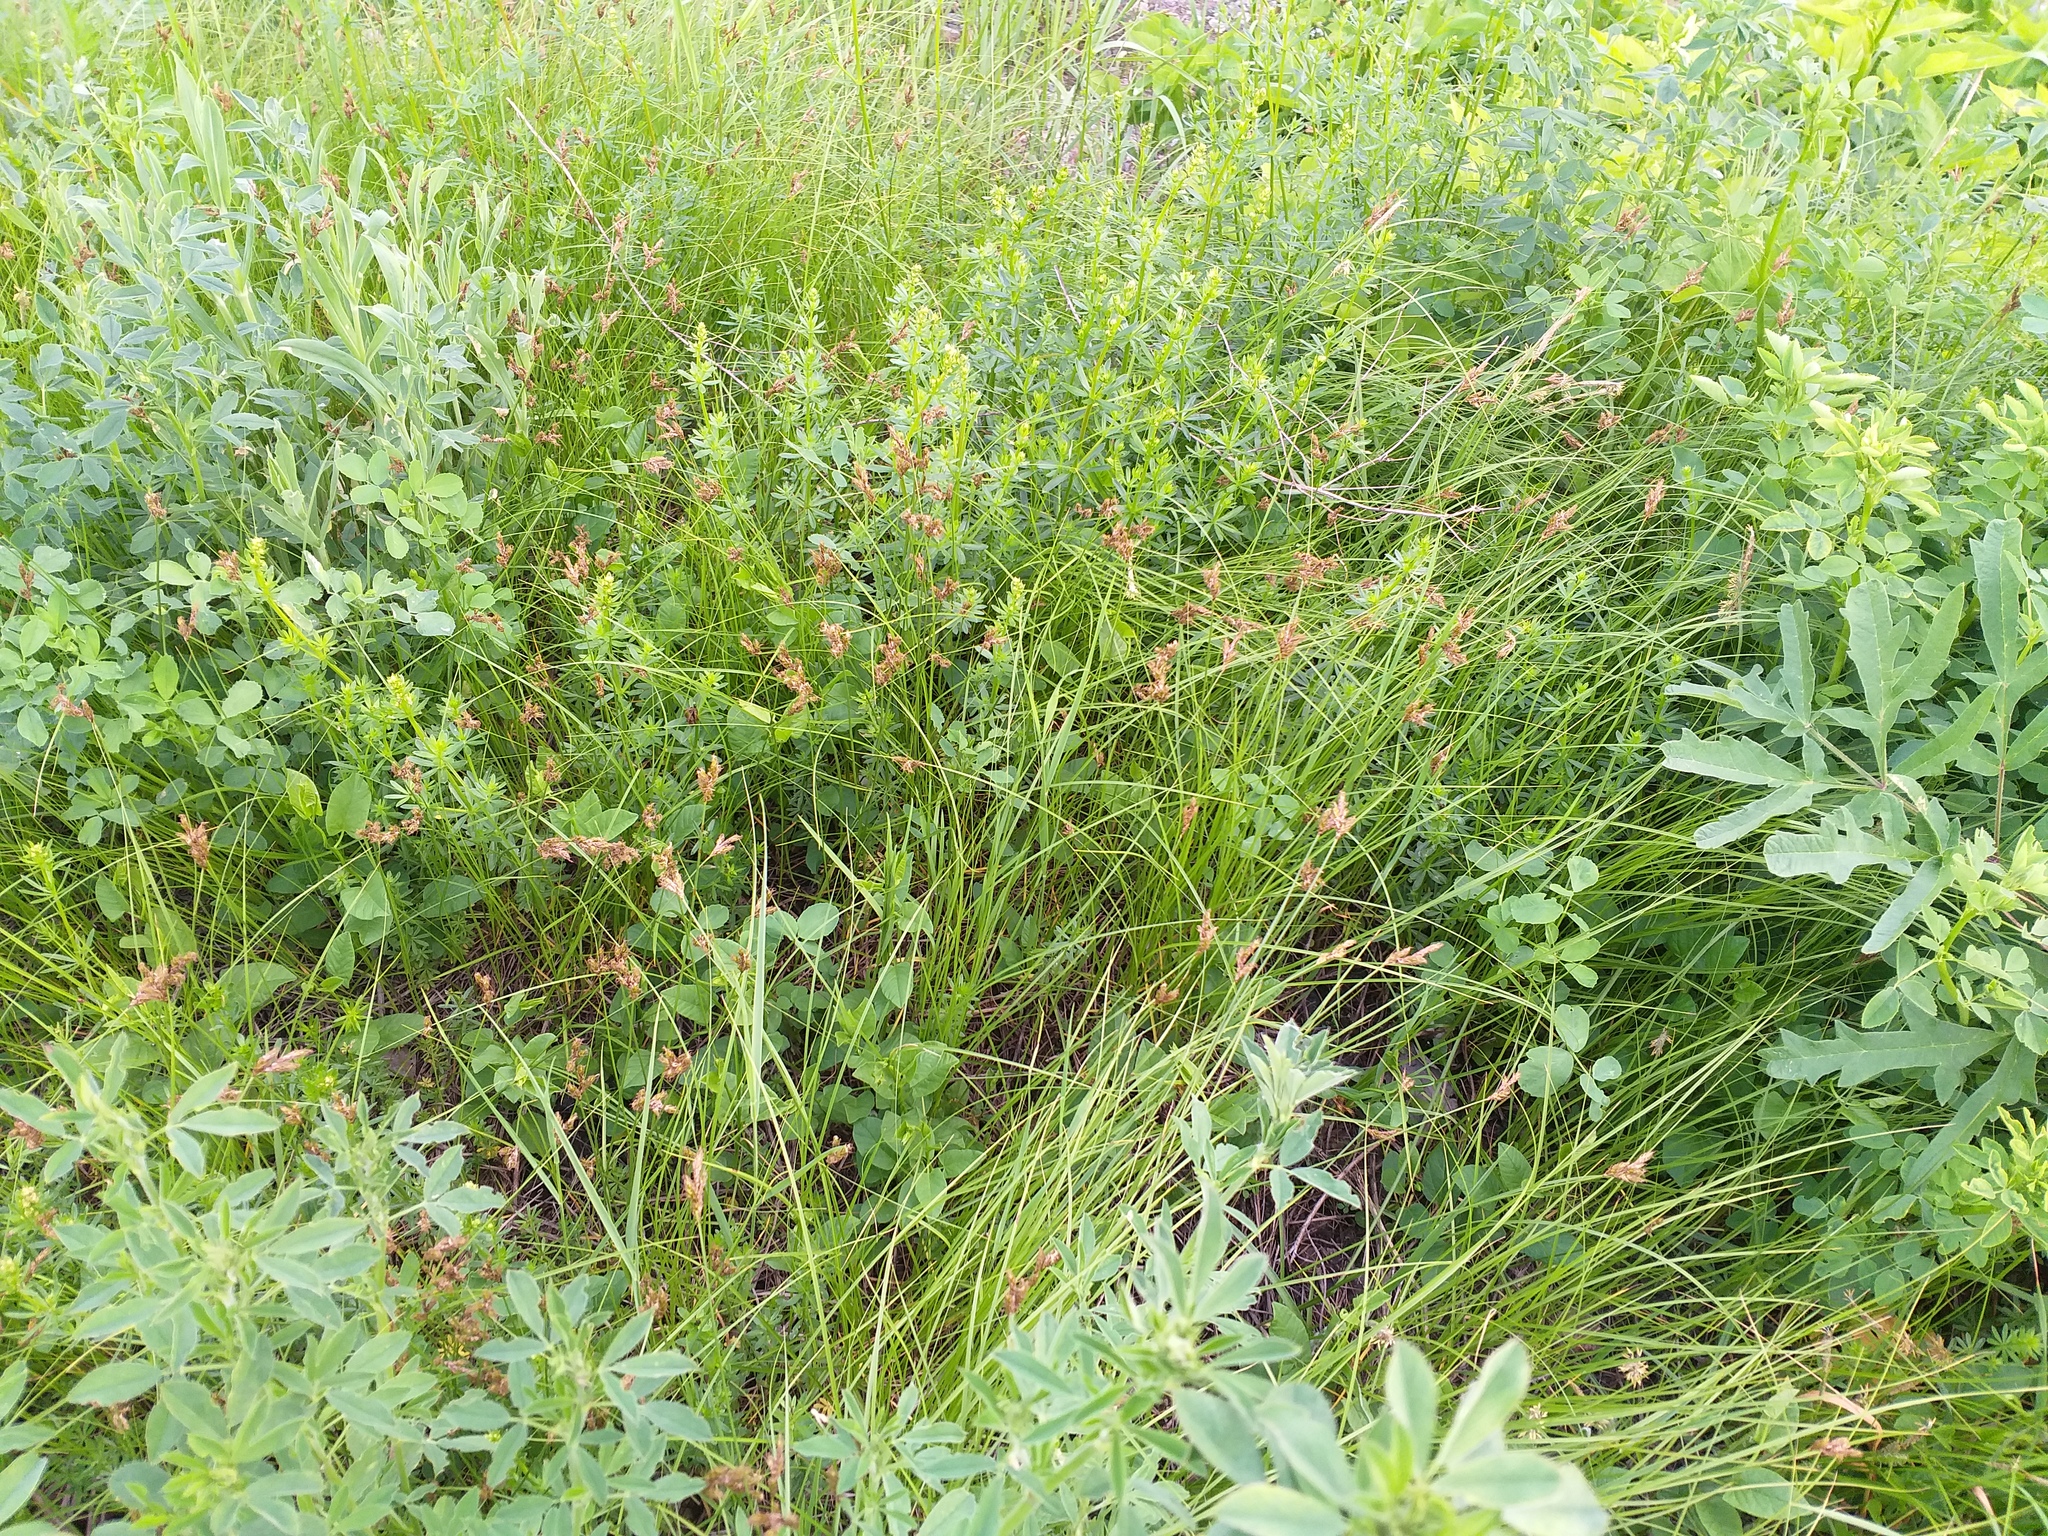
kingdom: Plantae
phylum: Tracheophyta
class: Liliopsida
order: Poales
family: Cyperaceae
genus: Carex
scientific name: Carex praecox
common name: Early sedge
